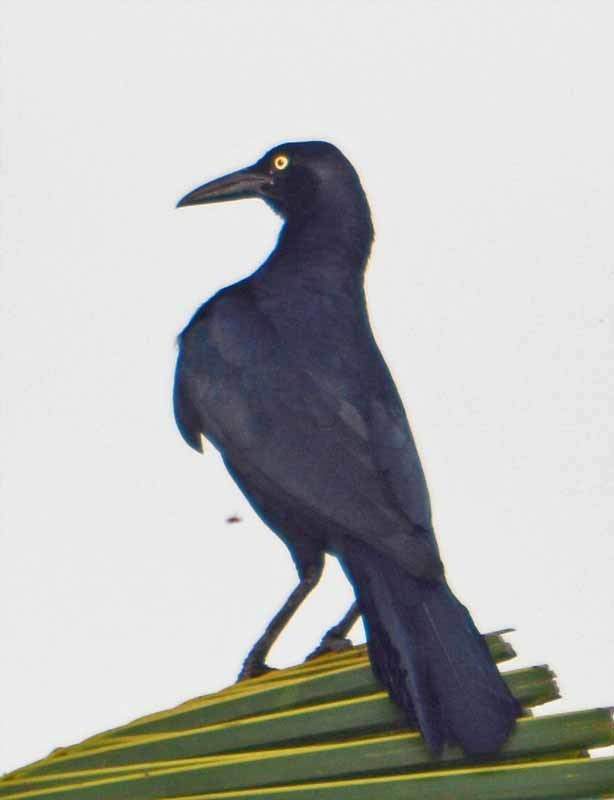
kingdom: Animalia
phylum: Chordata
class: Aves
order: Passeriformes
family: Icteridae
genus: Quiscalus
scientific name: Quiscalus mexicanus
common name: Great-tailed grackle
